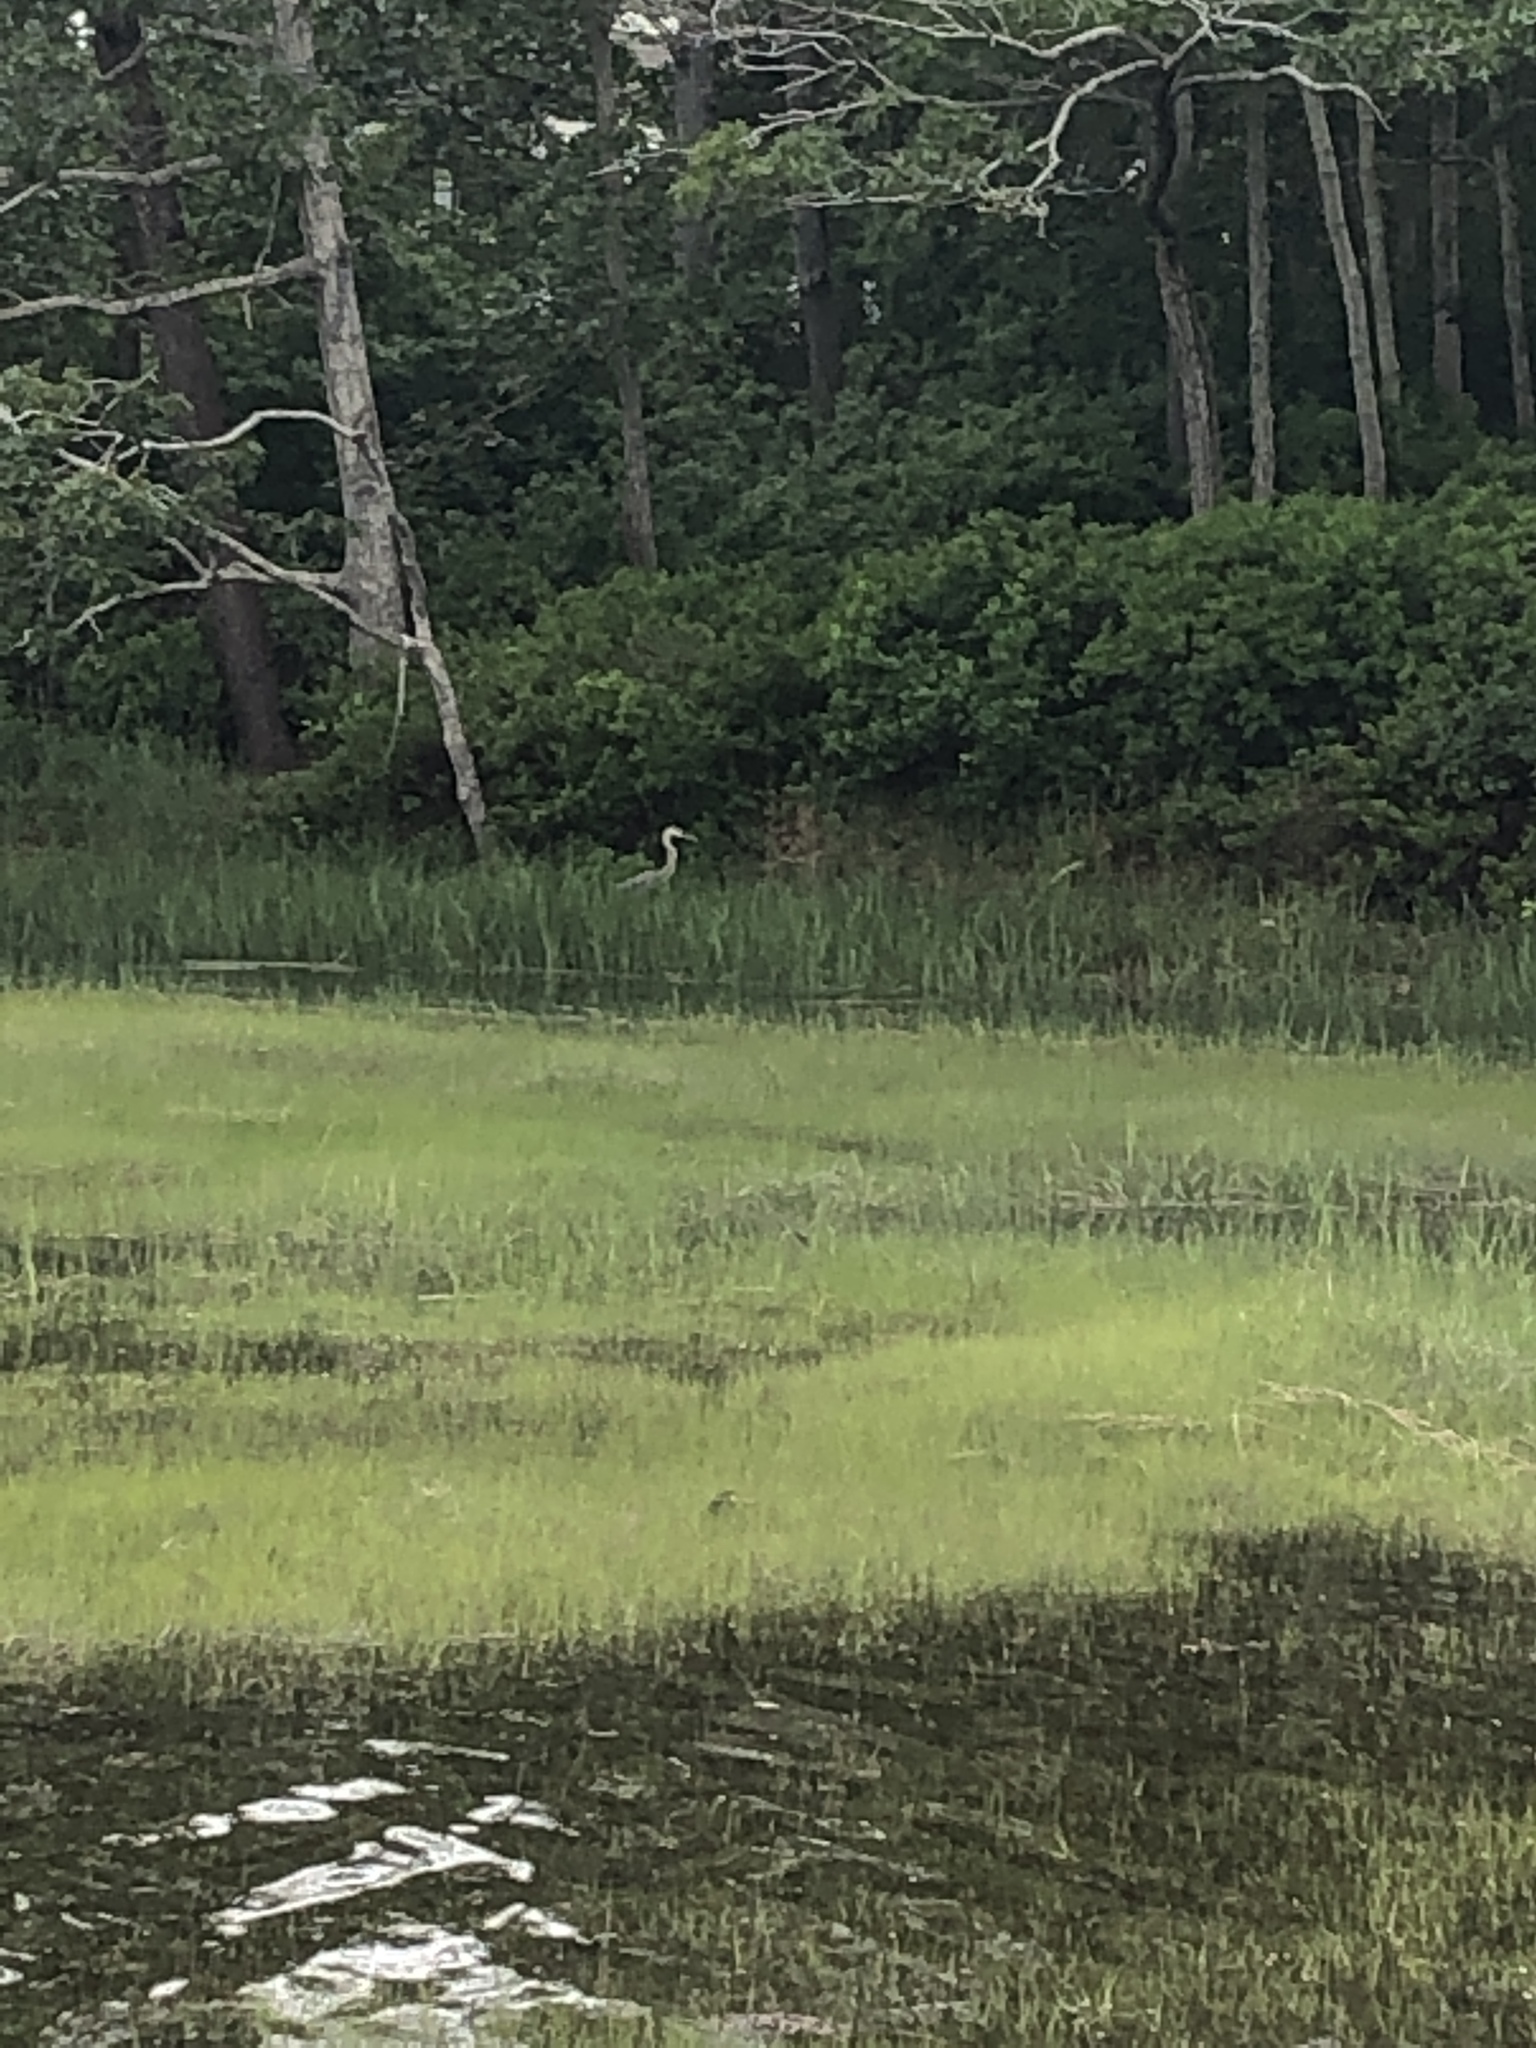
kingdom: Animalia
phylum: Chordata
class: Aves
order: Pelecaniformes
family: Ardeidae
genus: Ardea
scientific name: Ardea herodias
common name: Great blue heron
